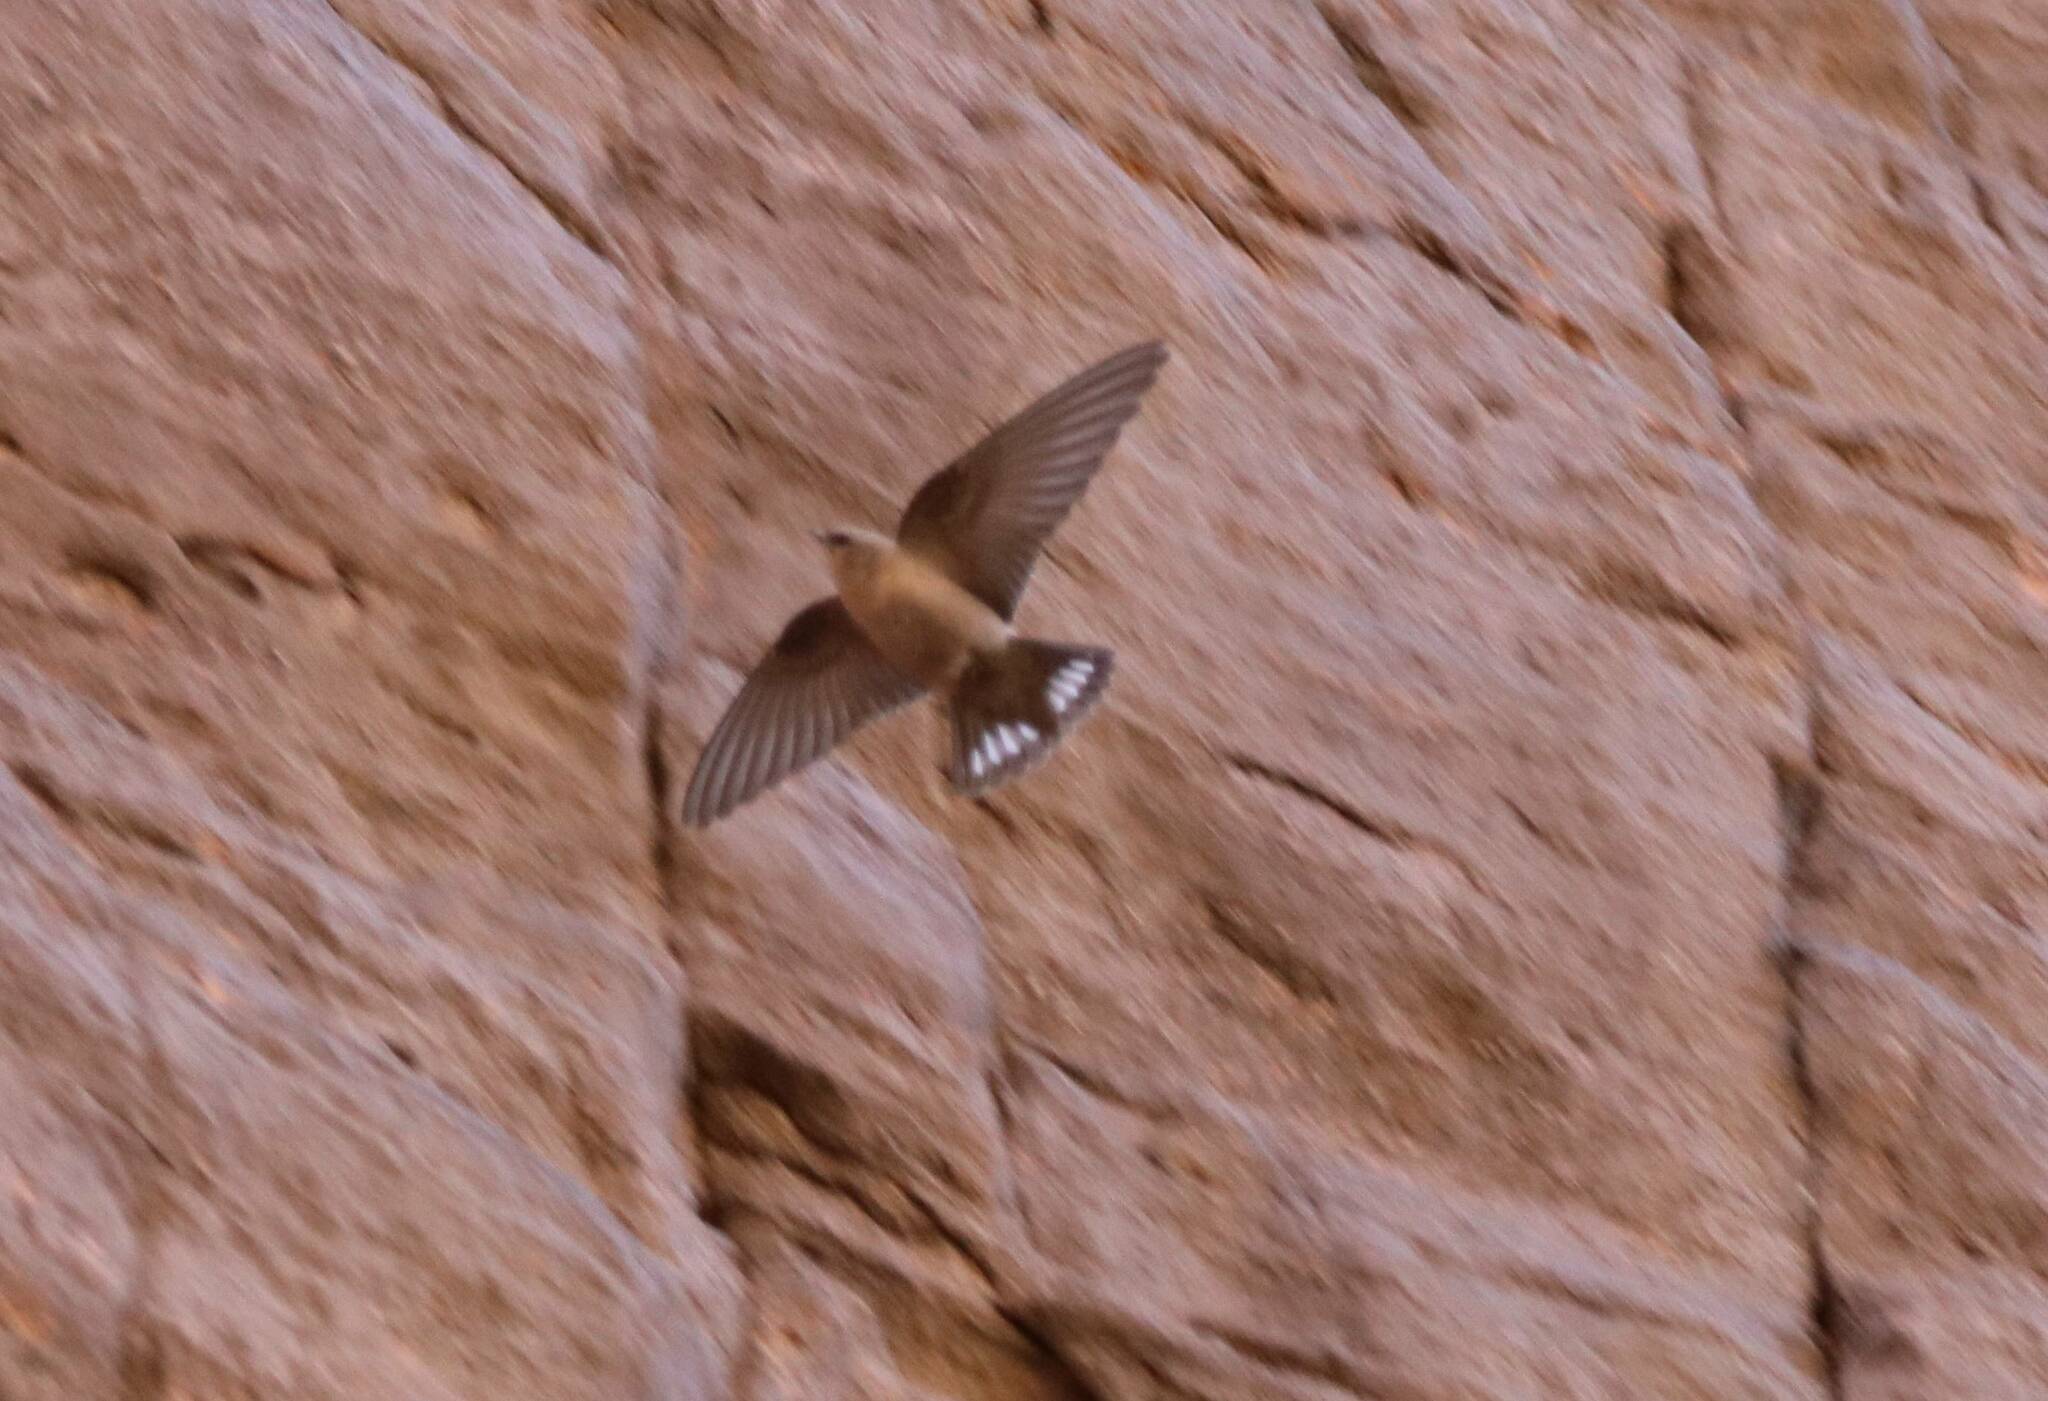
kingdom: Animalia
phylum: Chordata
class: Aves
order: Passeriformes
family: Hirundinidae
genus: Ptyonoprogne
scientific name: Ptyonoprogne fuligula
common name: Rock martin
